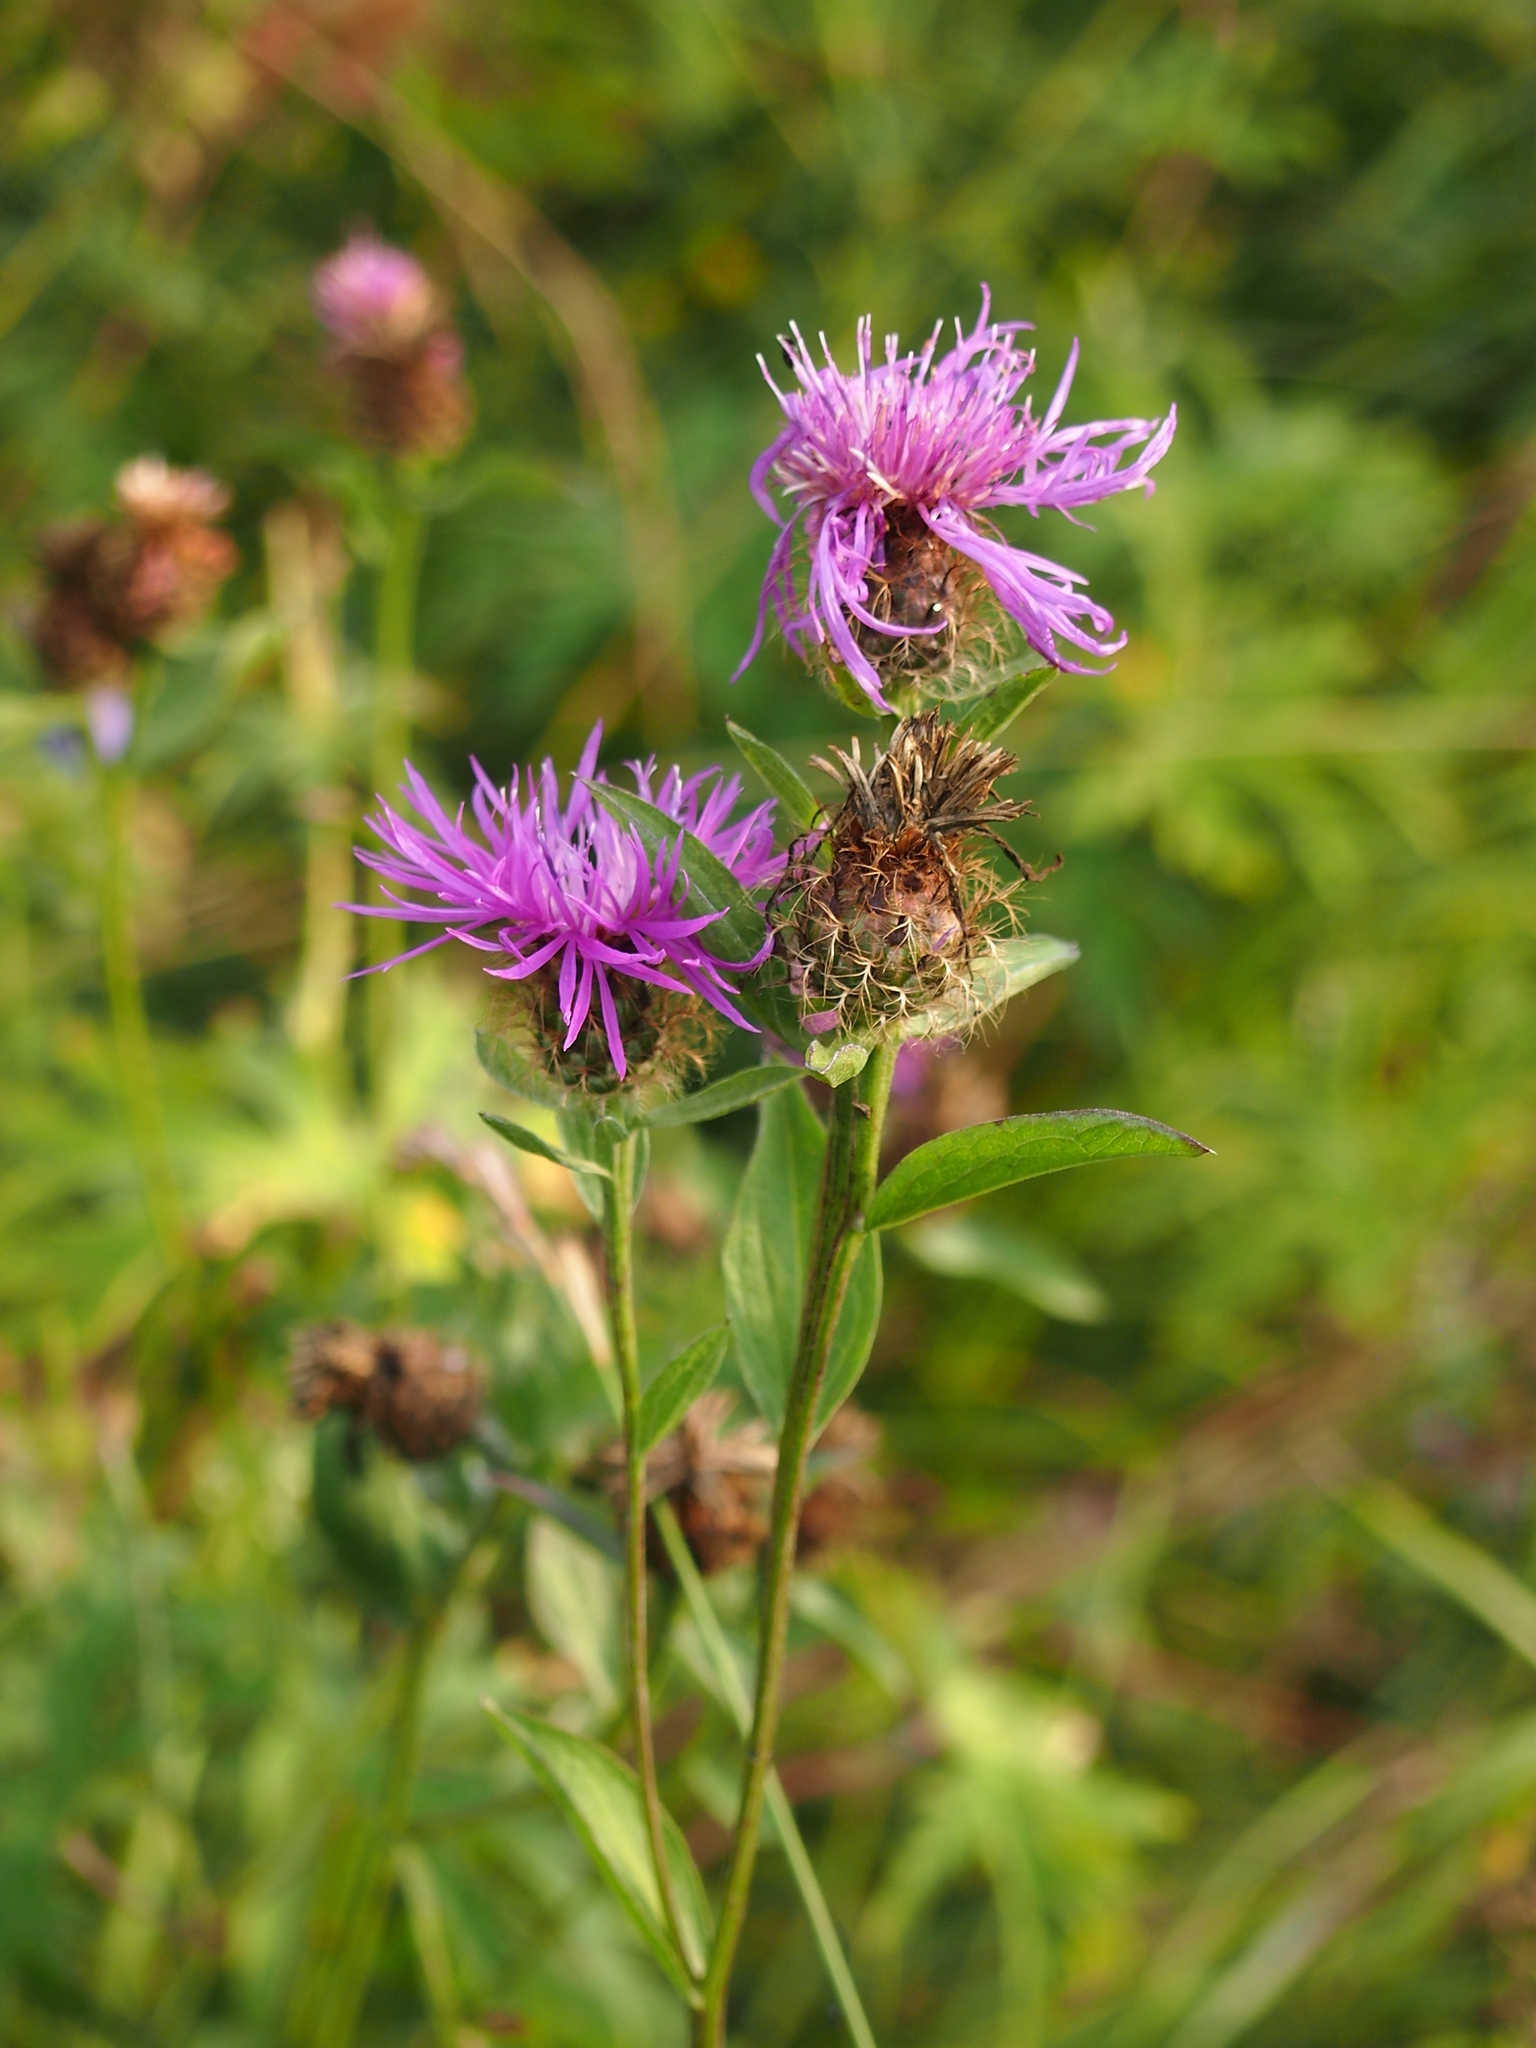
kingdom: Plantae
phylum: Tracheophyta
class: Magnoliopsida
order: Asterales
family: Asteraceae
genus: Centaurea
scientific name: Centaurea phrygia
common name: Wig knapweed
